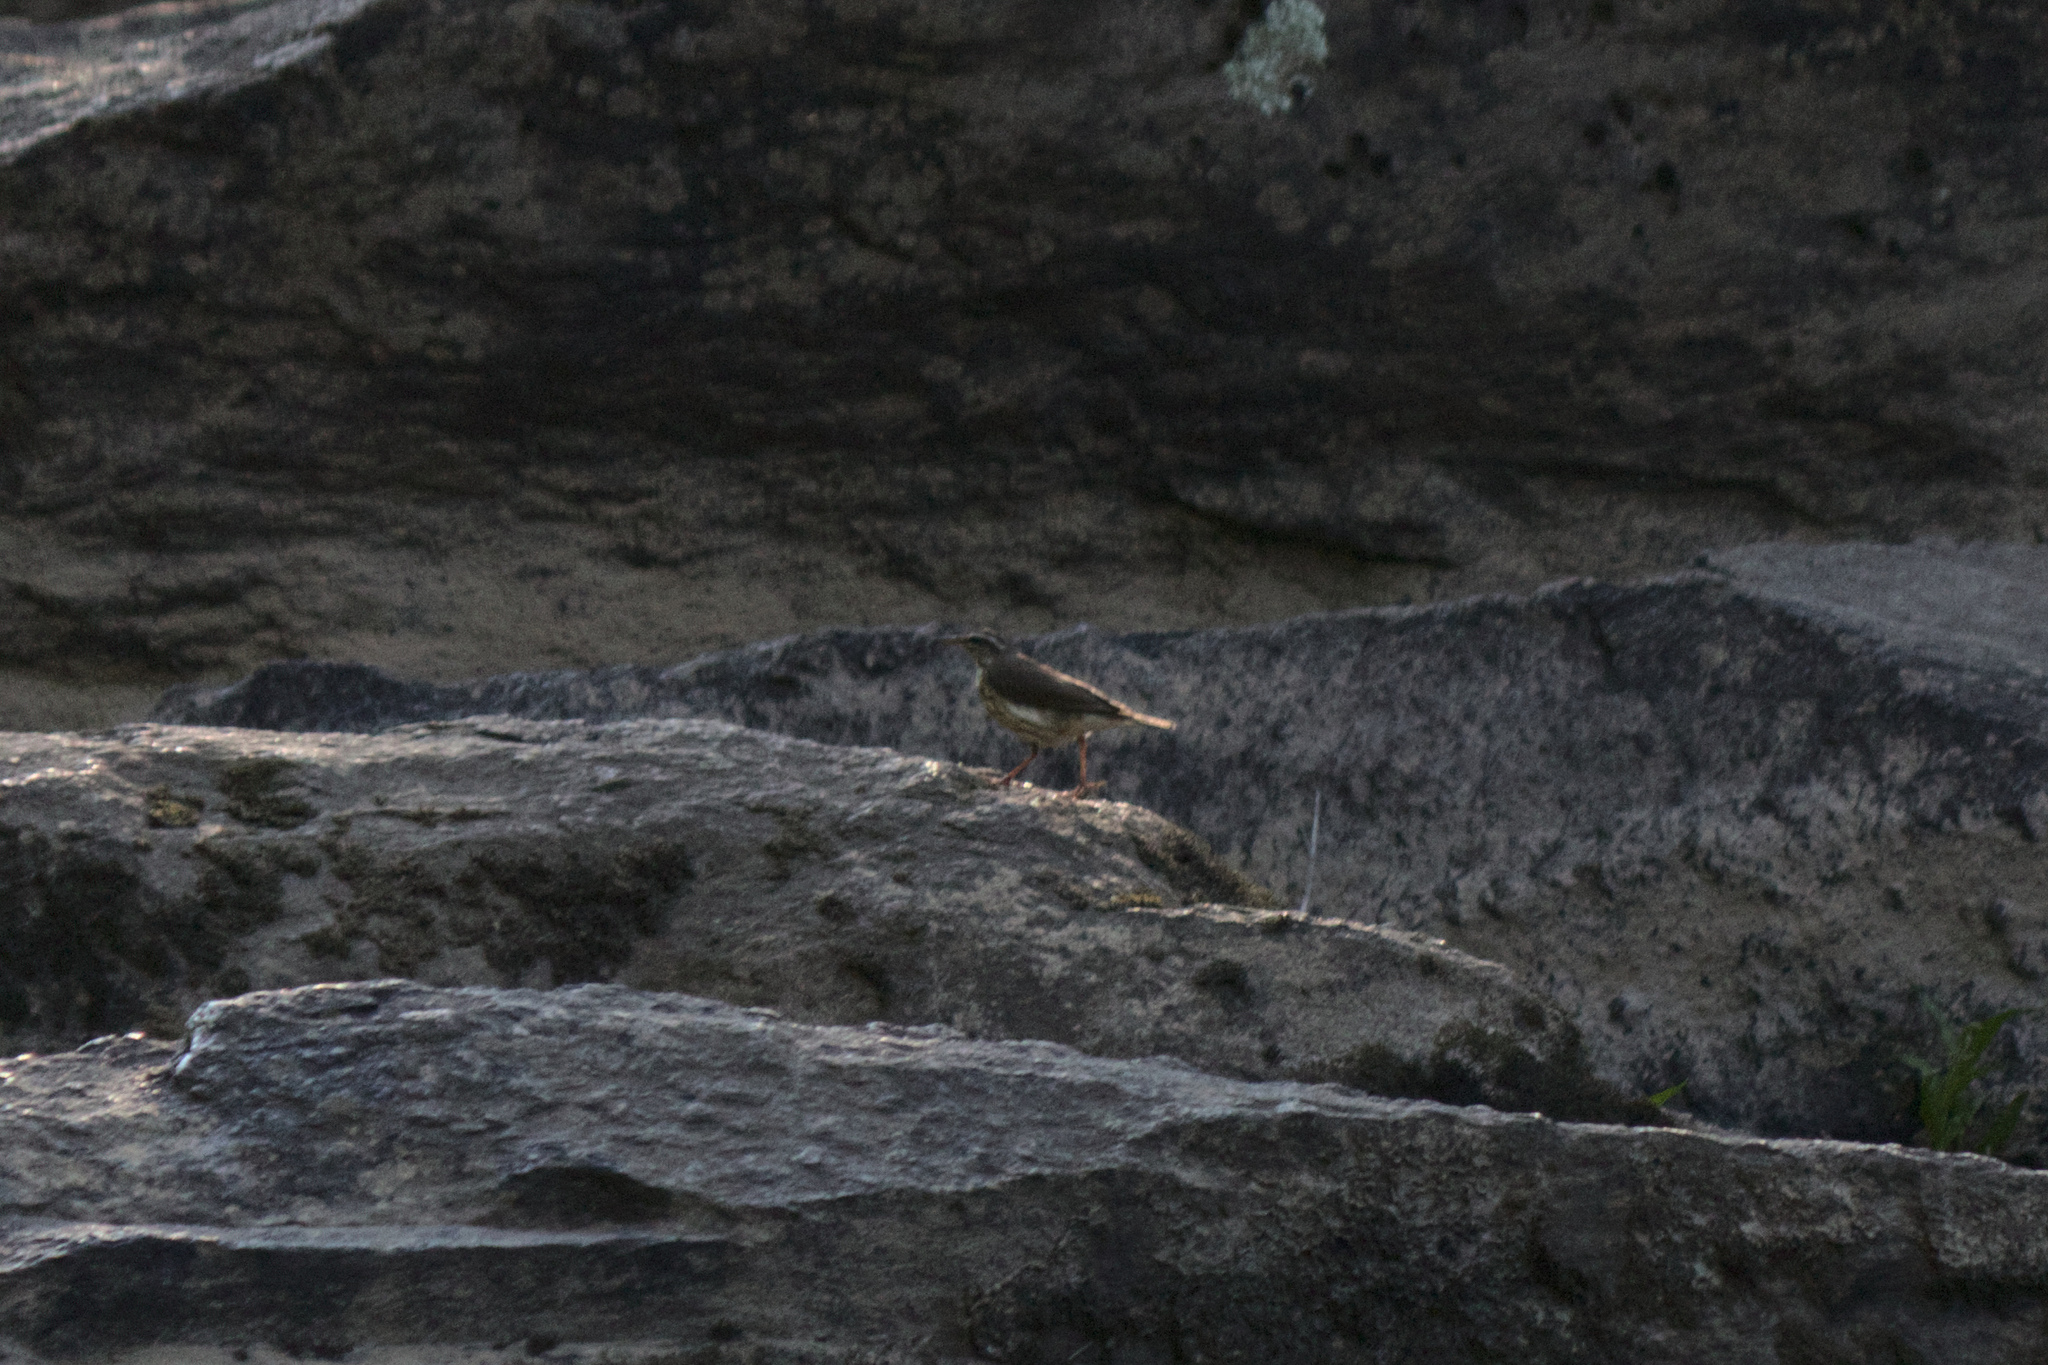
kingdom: Animalia
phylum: Chordata
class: Aves
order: Passeriformes
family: Parulidae
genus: Parkesia
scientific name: Parkesia motacilla
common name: Louisiana waterthrush
